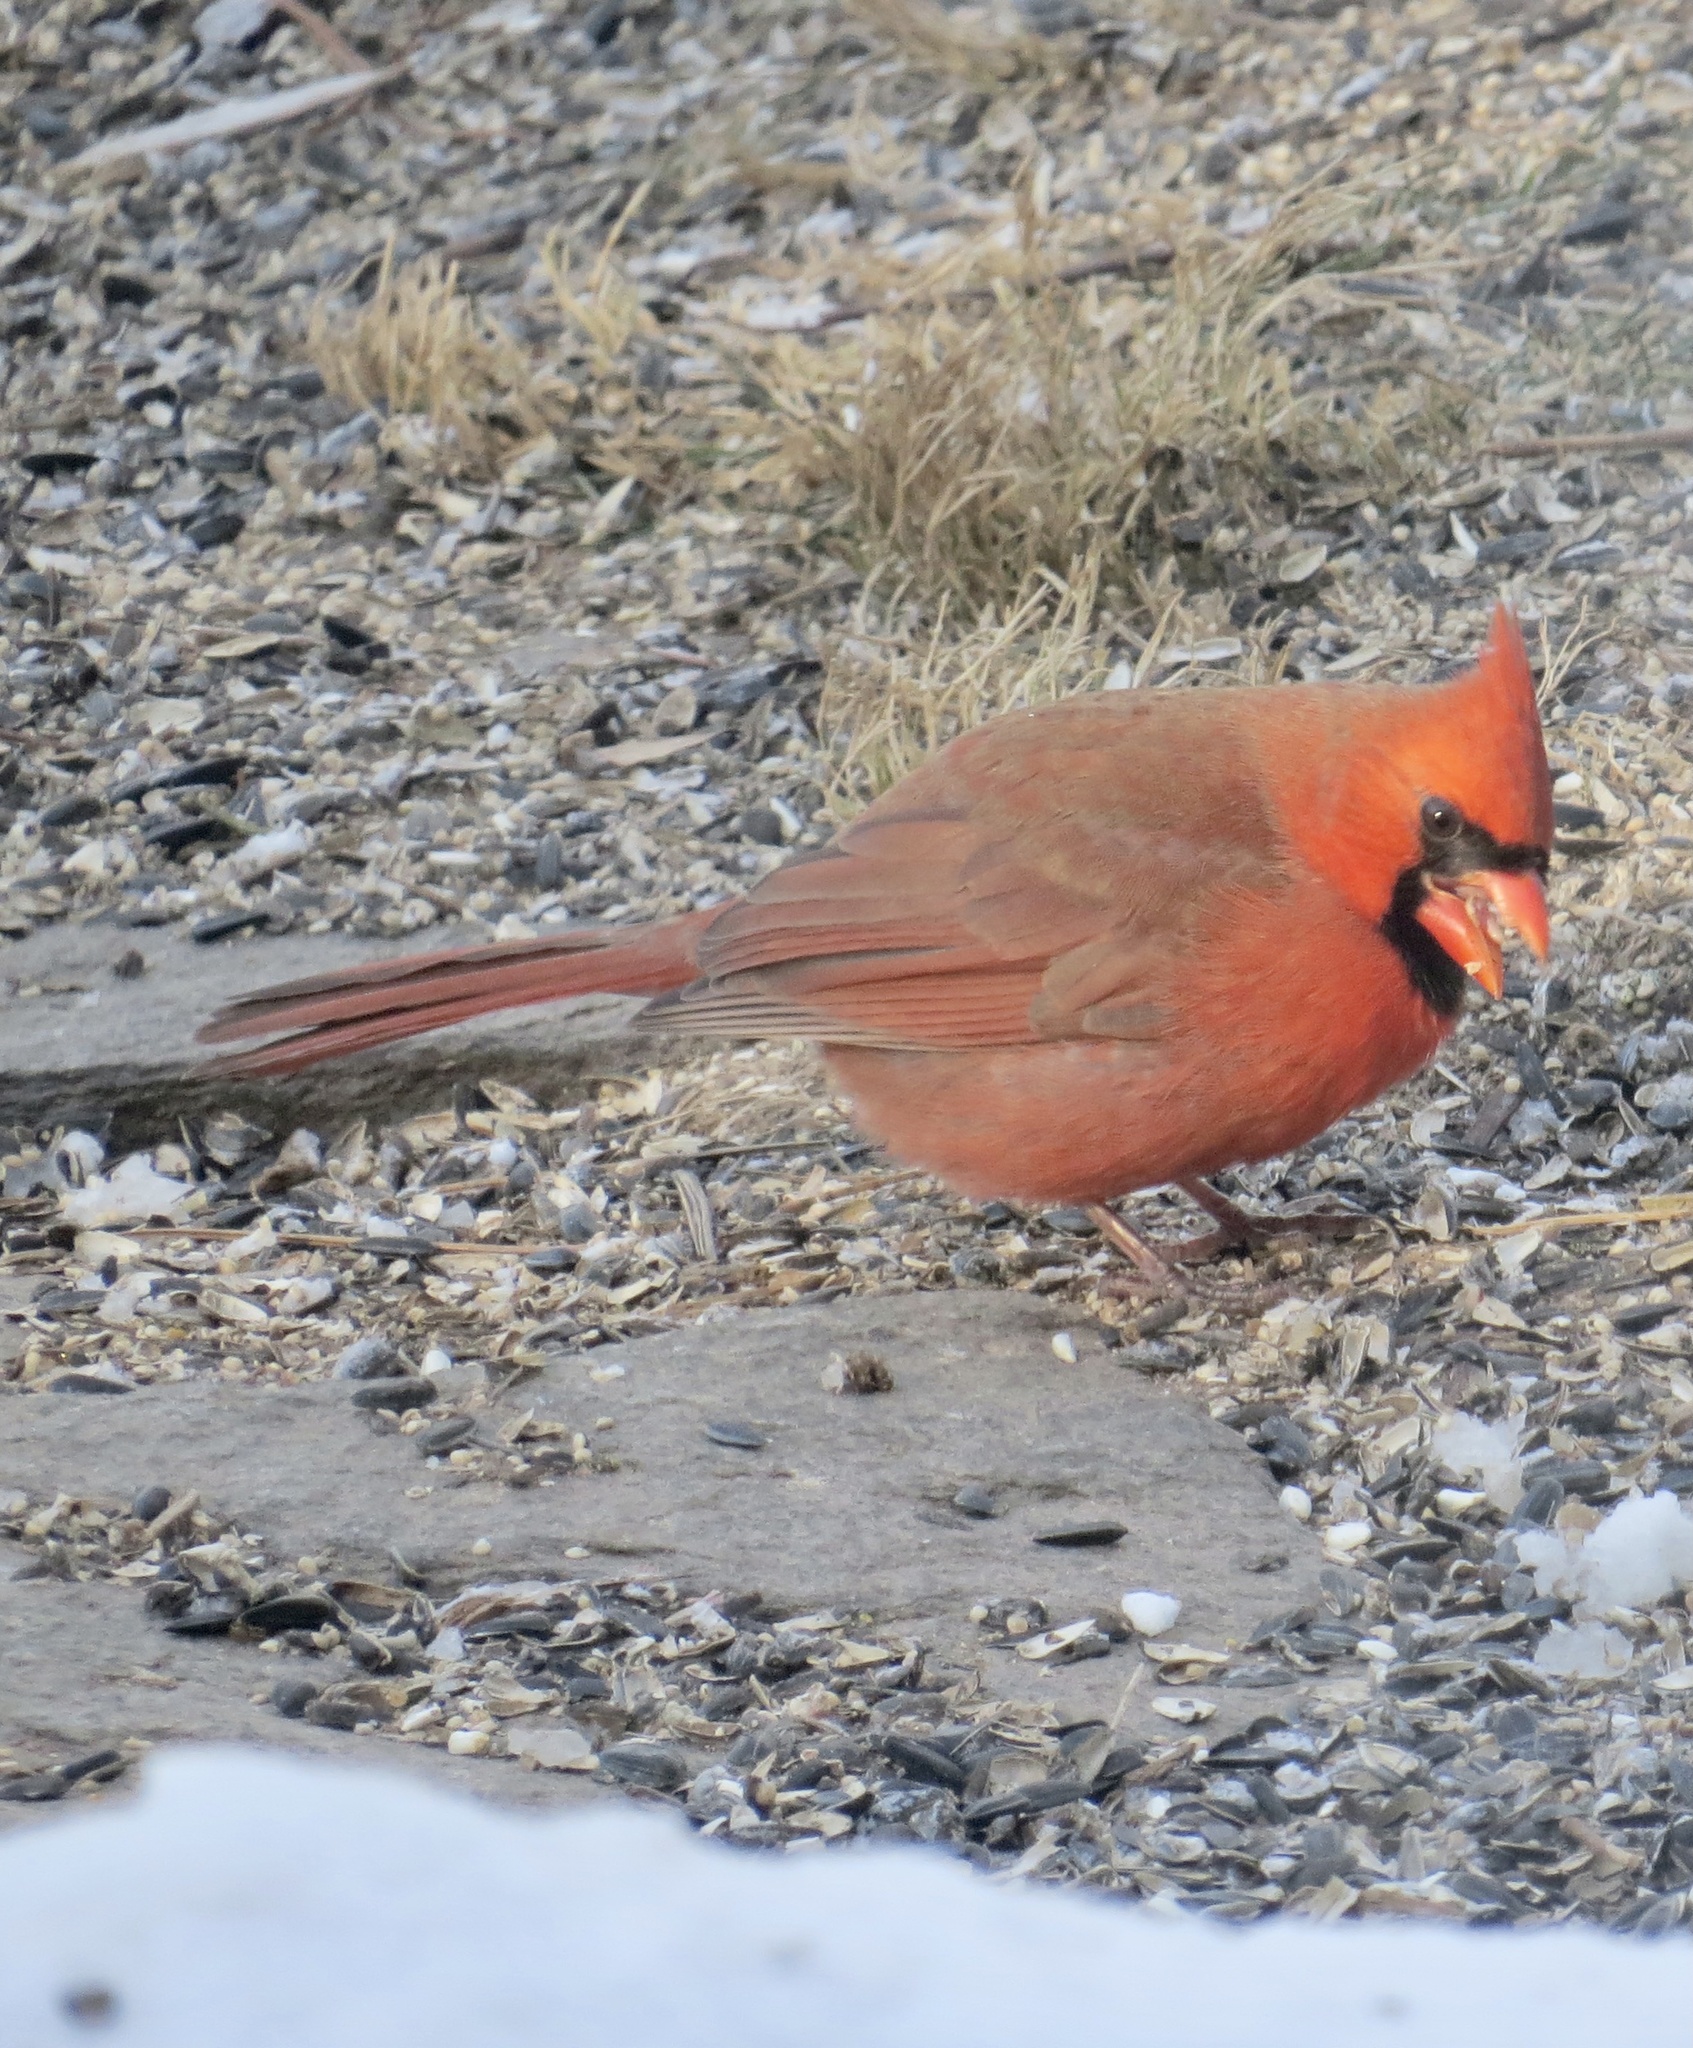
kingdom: Animalia
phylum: Chordata
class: Aves
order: Passeriformes
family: Cardinalidae
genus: Cardinalis
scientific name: Cardinalis cardinalis
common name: Northern cardinal
